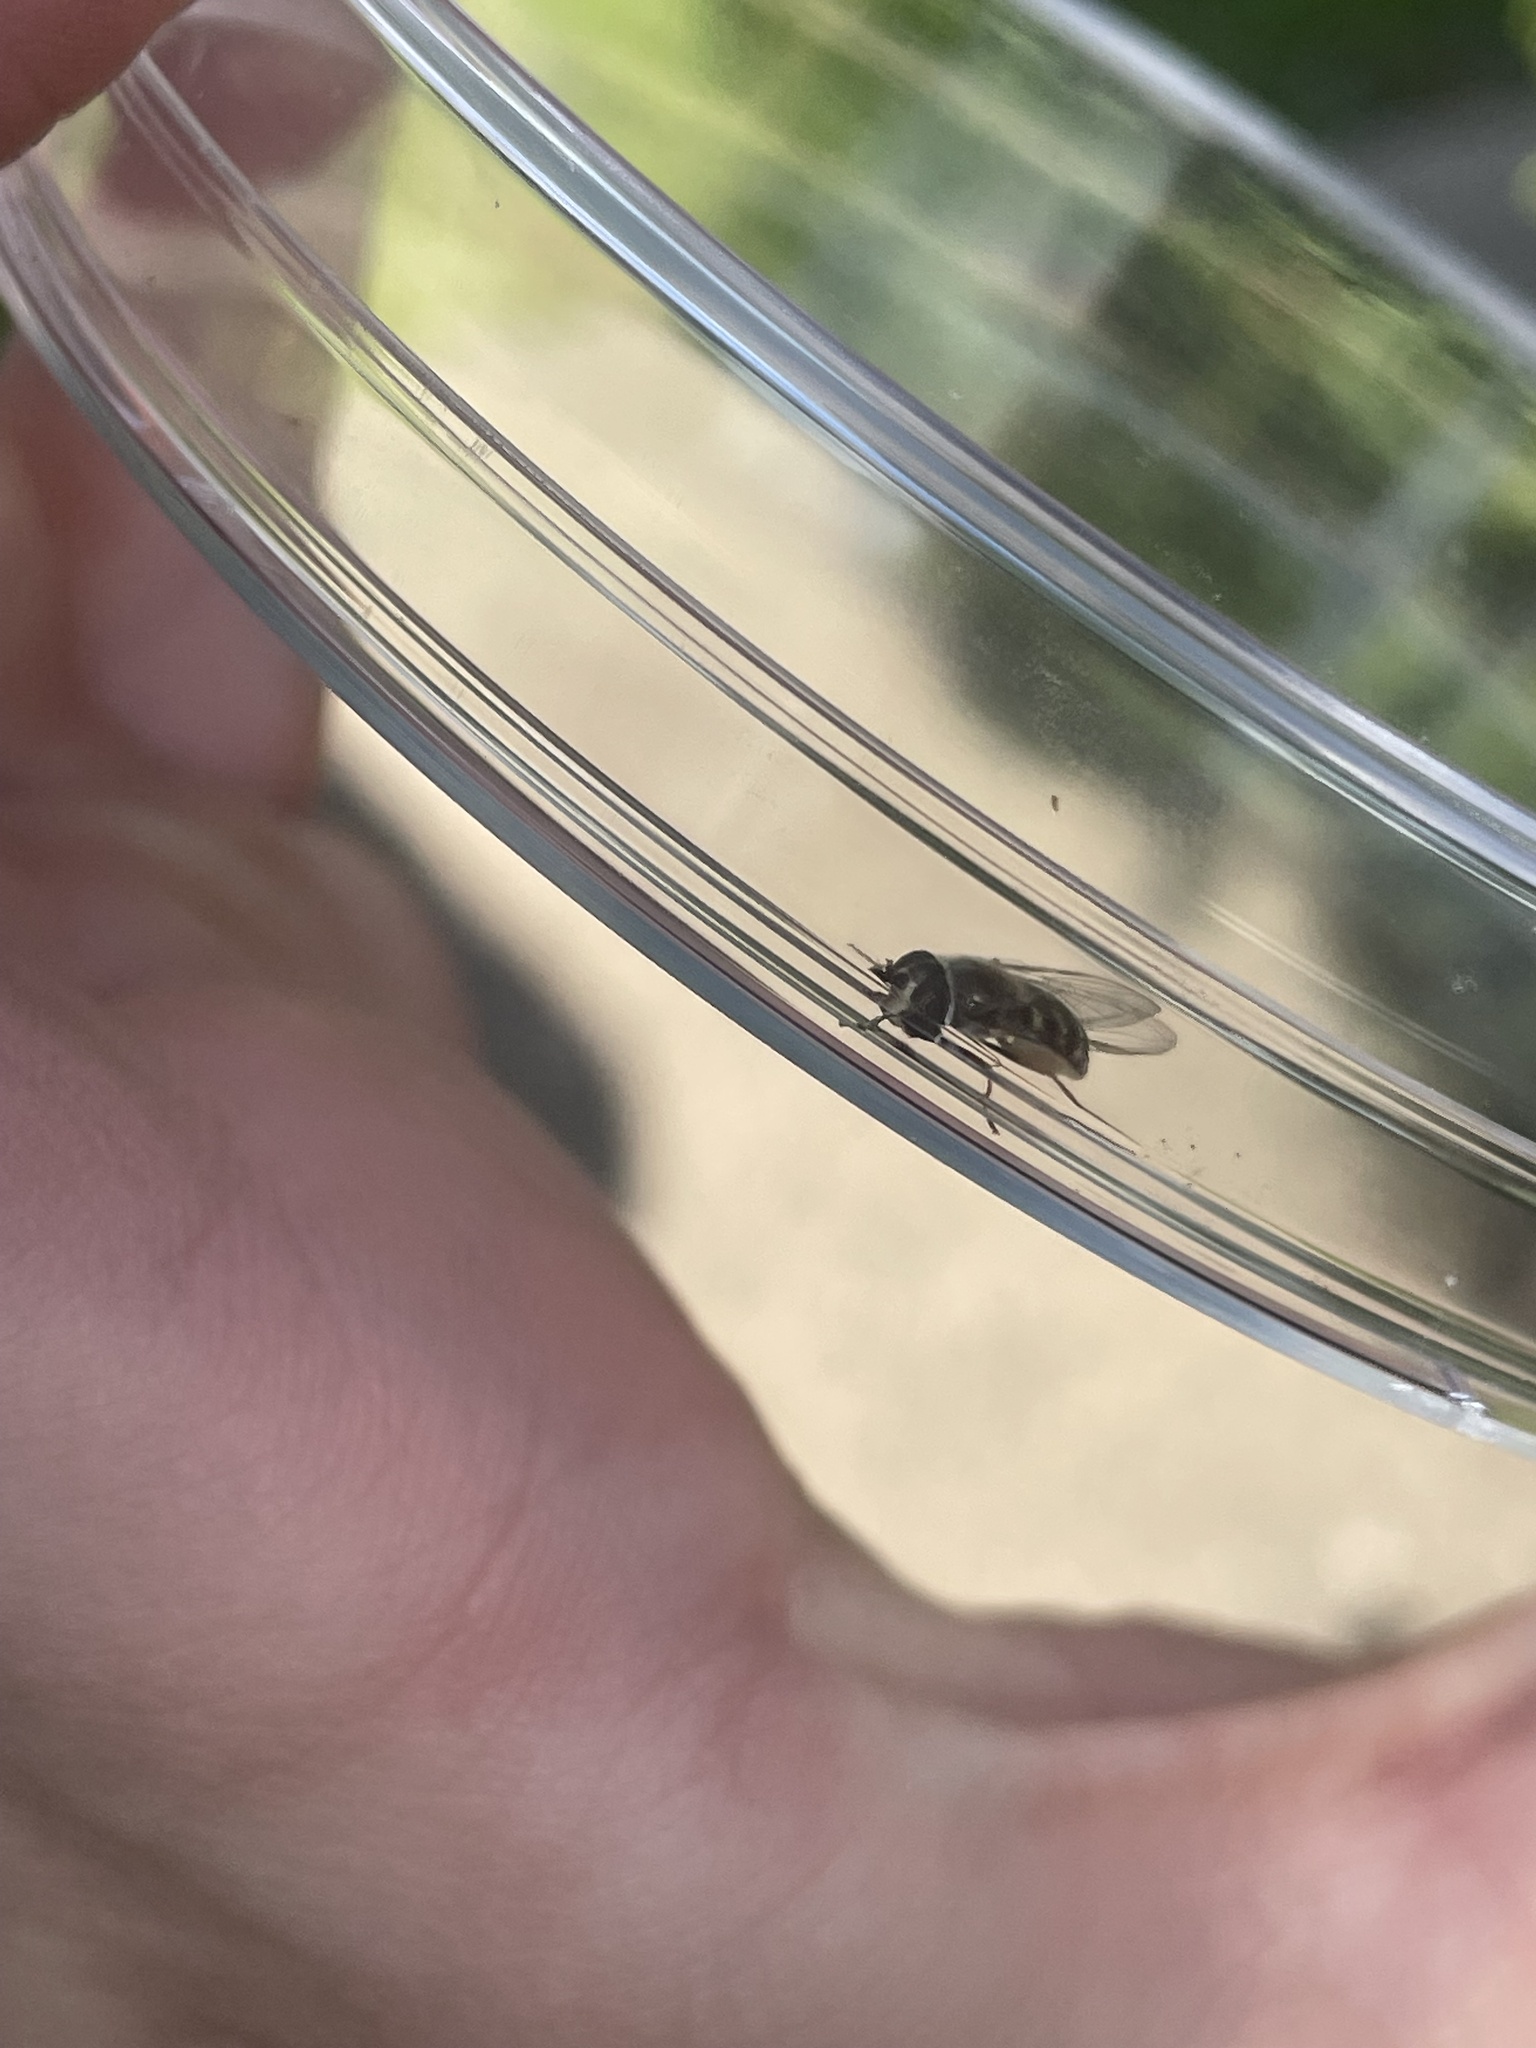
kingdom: Animalia
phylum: Arthropoda
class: Insecta
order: Diptera
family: Syrphidae
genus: Eupeodes
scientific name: Eupeodes volucris
